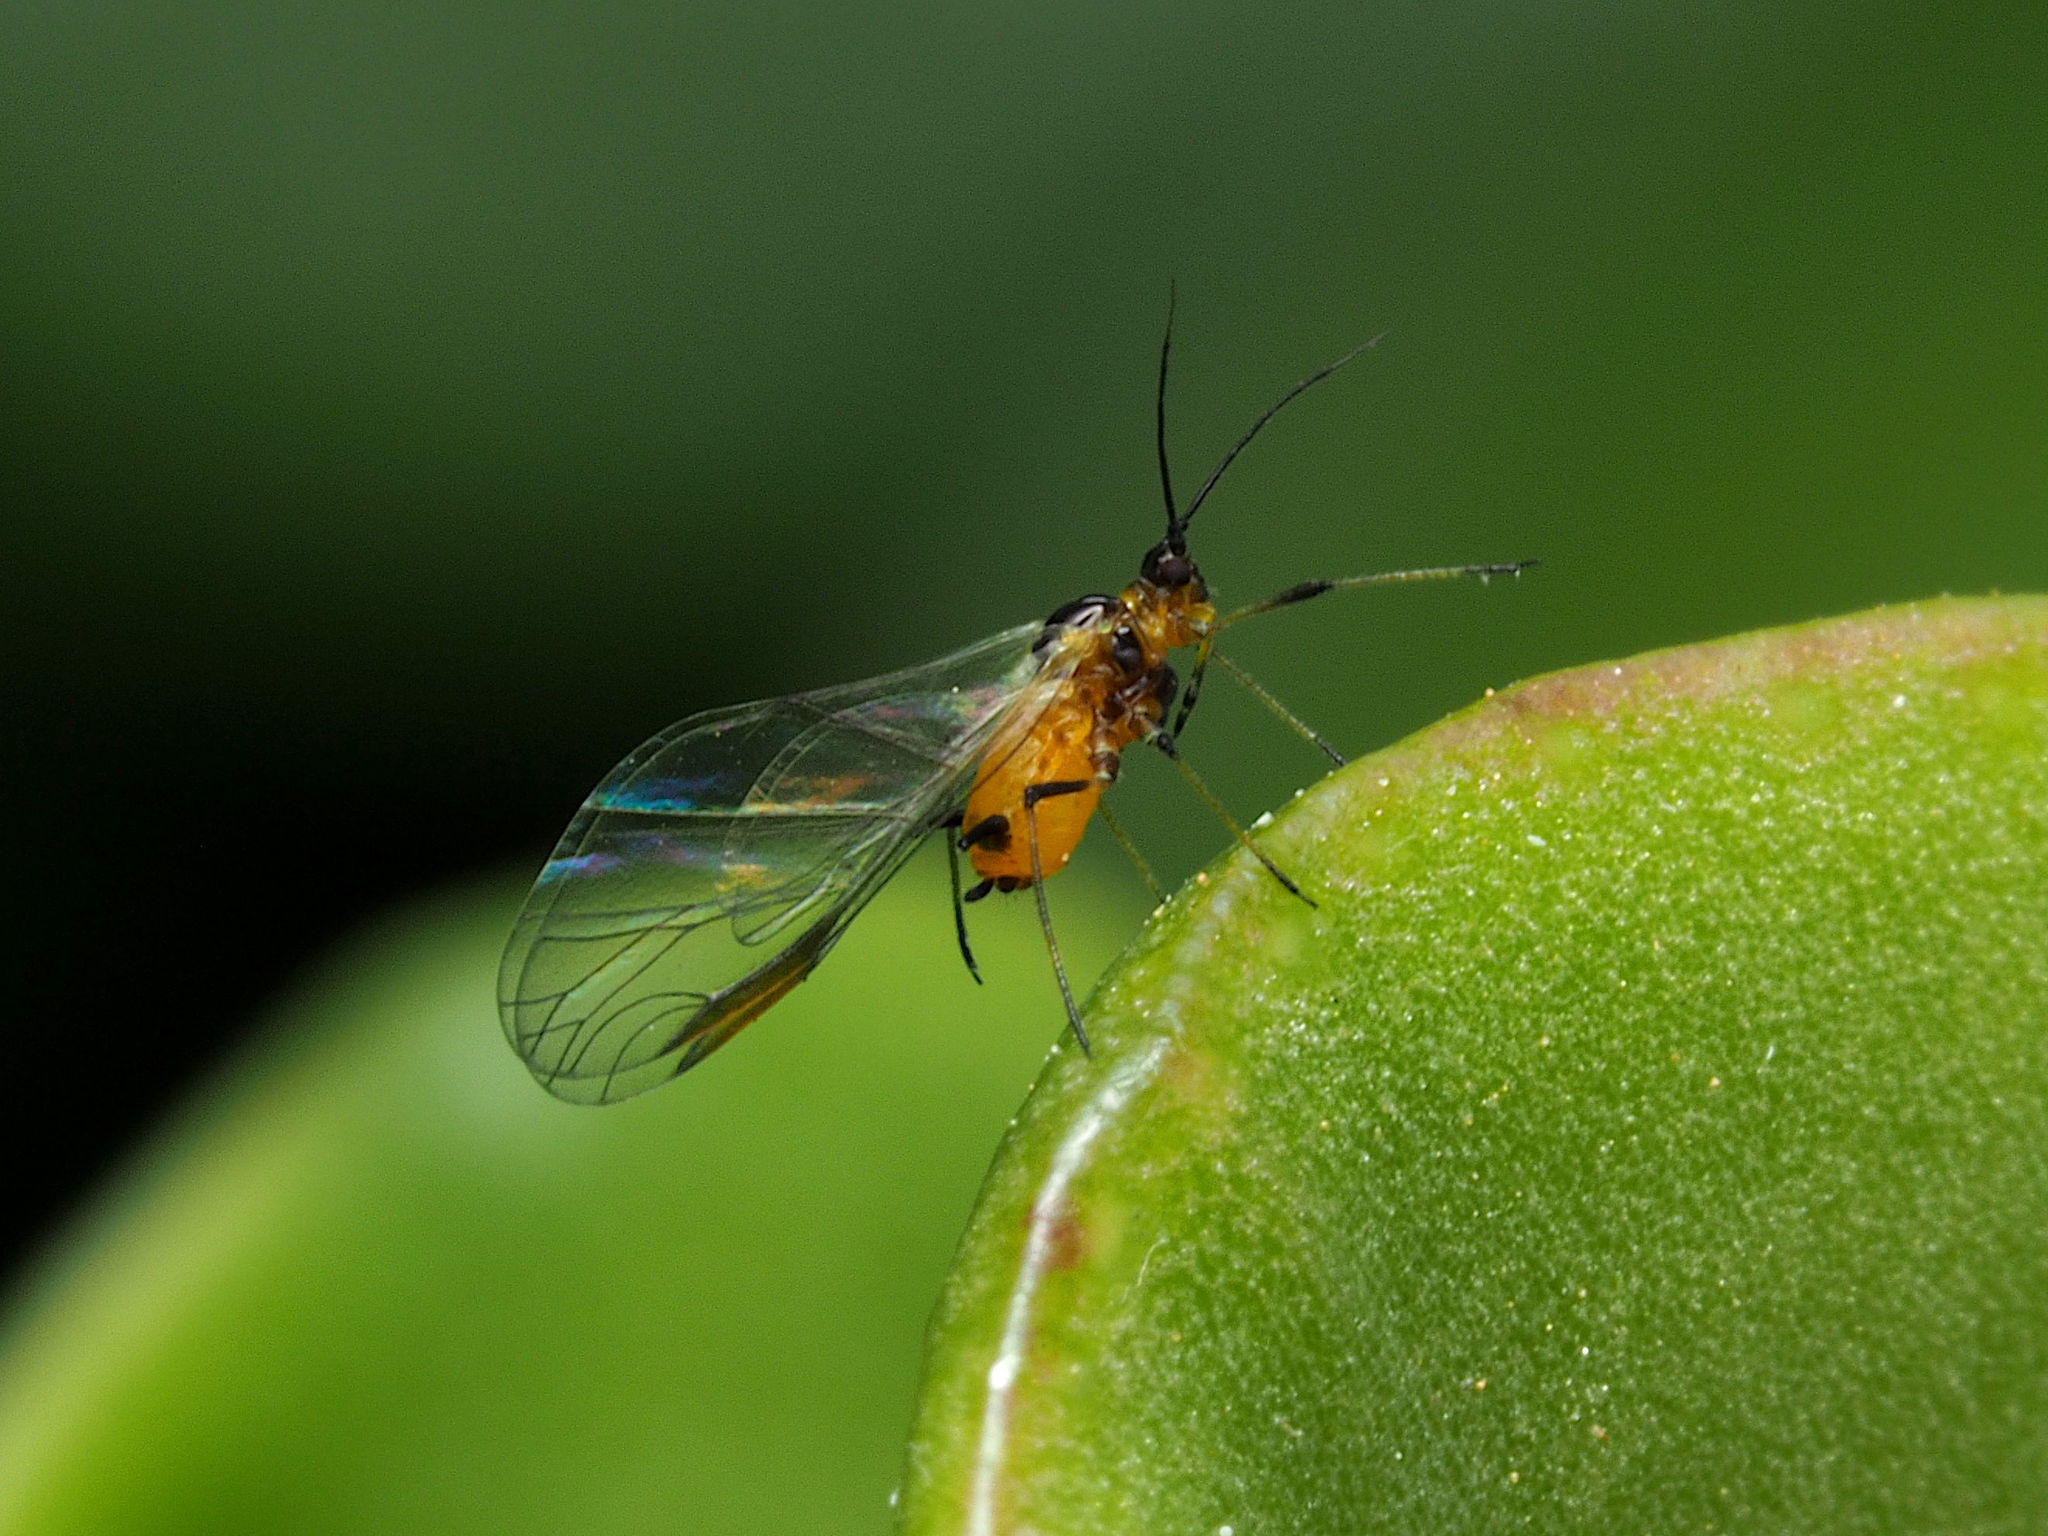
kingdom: Animalia
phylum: Arthropoda
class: Insecta
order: Hemiptera
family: Aphididae
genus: Aphis
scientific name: Aphis nerii
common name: Oleander aphid
